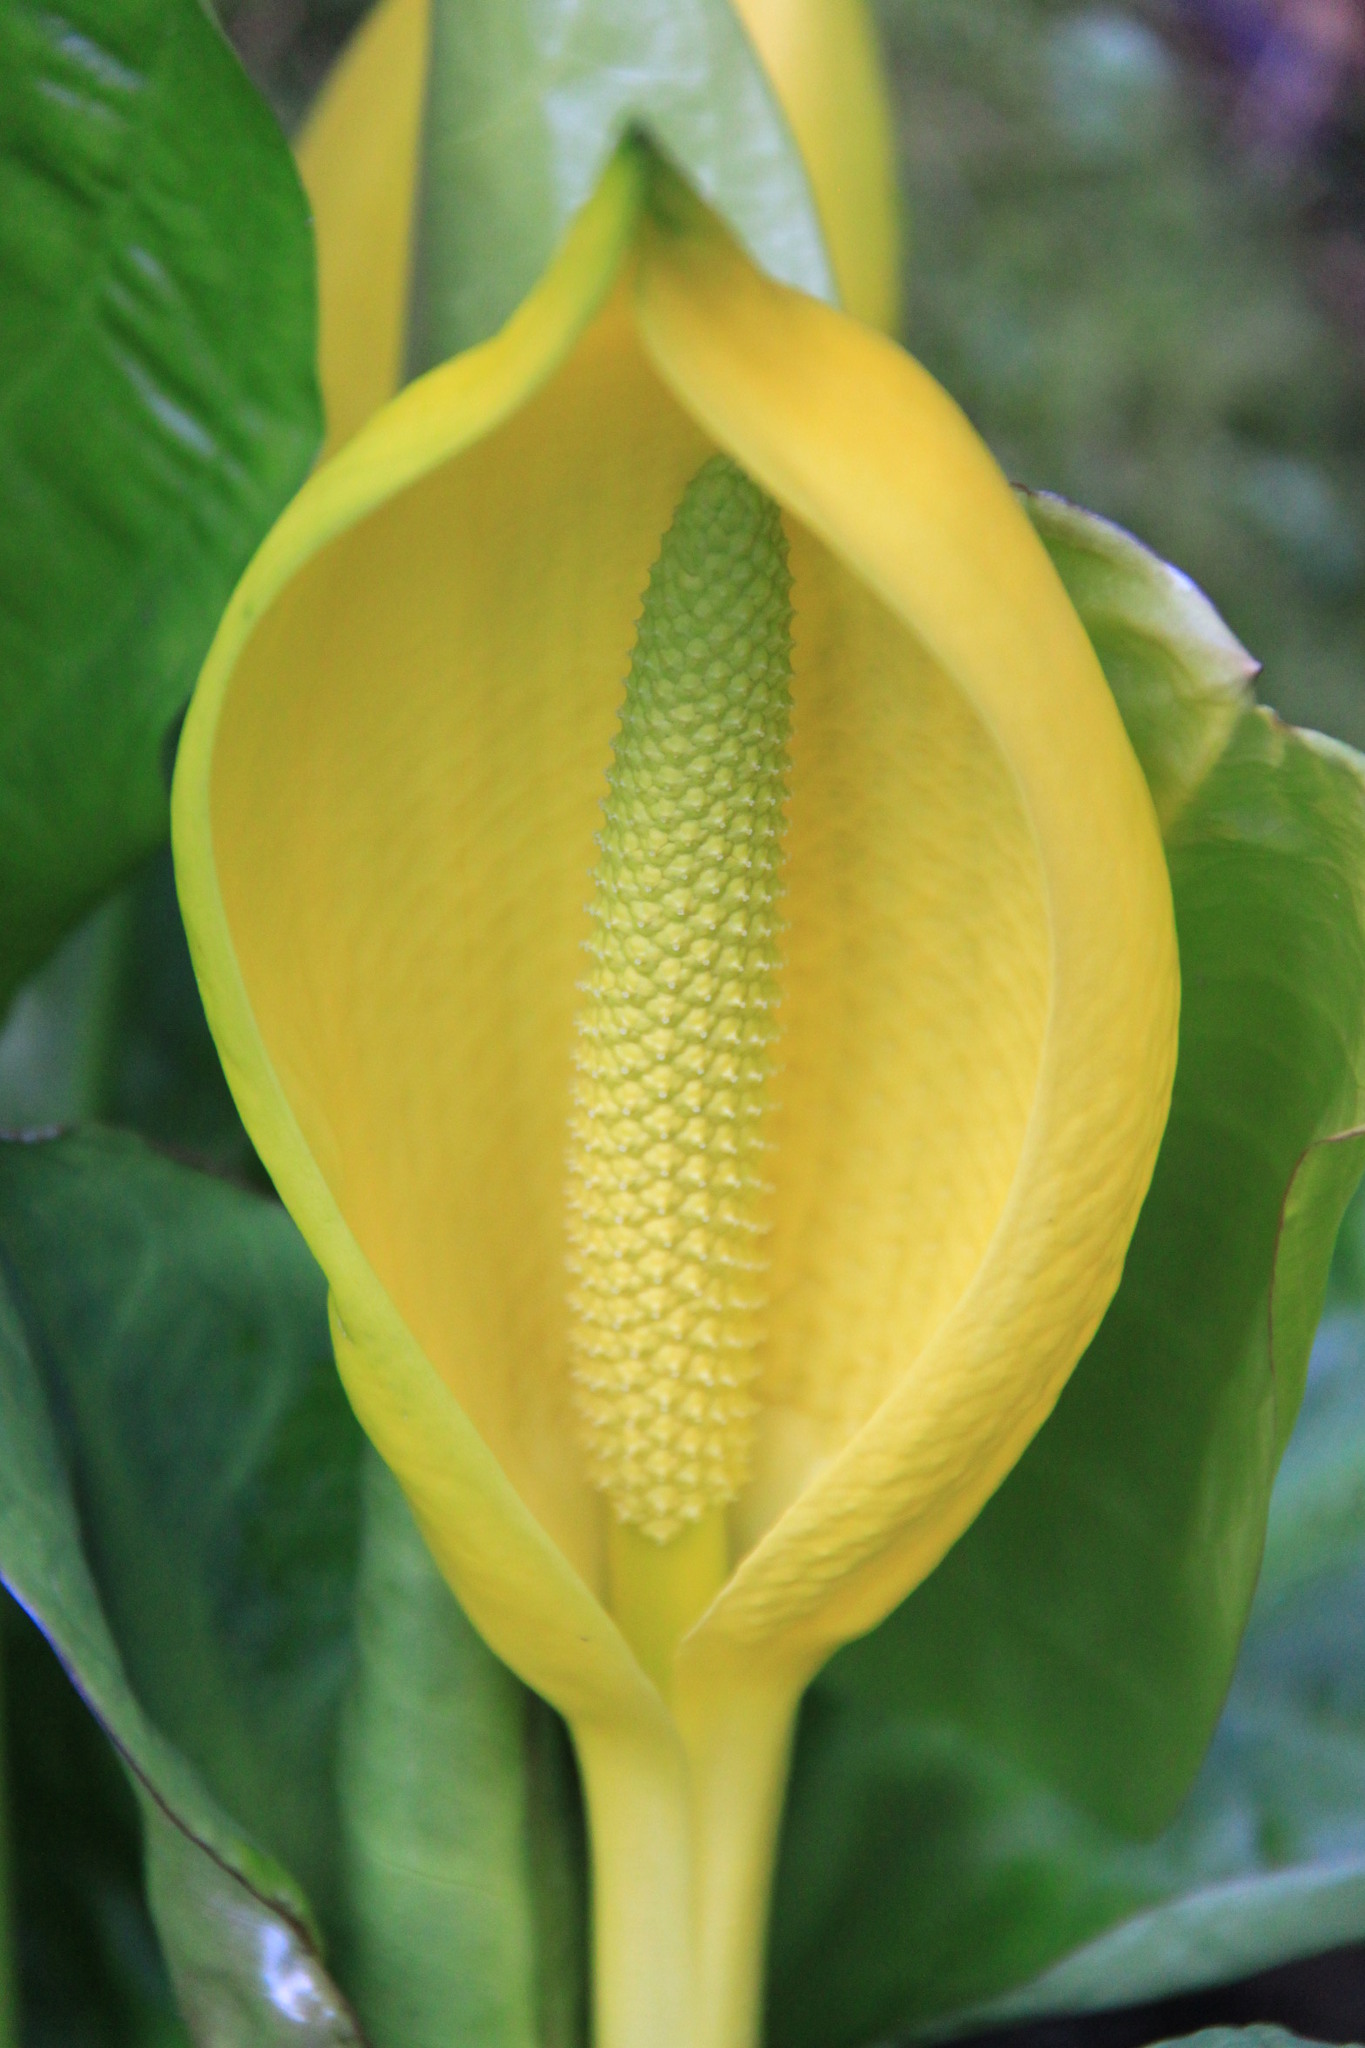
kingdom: Plantae
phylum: Tracheophyta
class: Liliopsida
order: Alismatales
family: Araceae
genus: Lysichiton
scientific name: Lysichiton americanus
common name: American skunk cabbage
